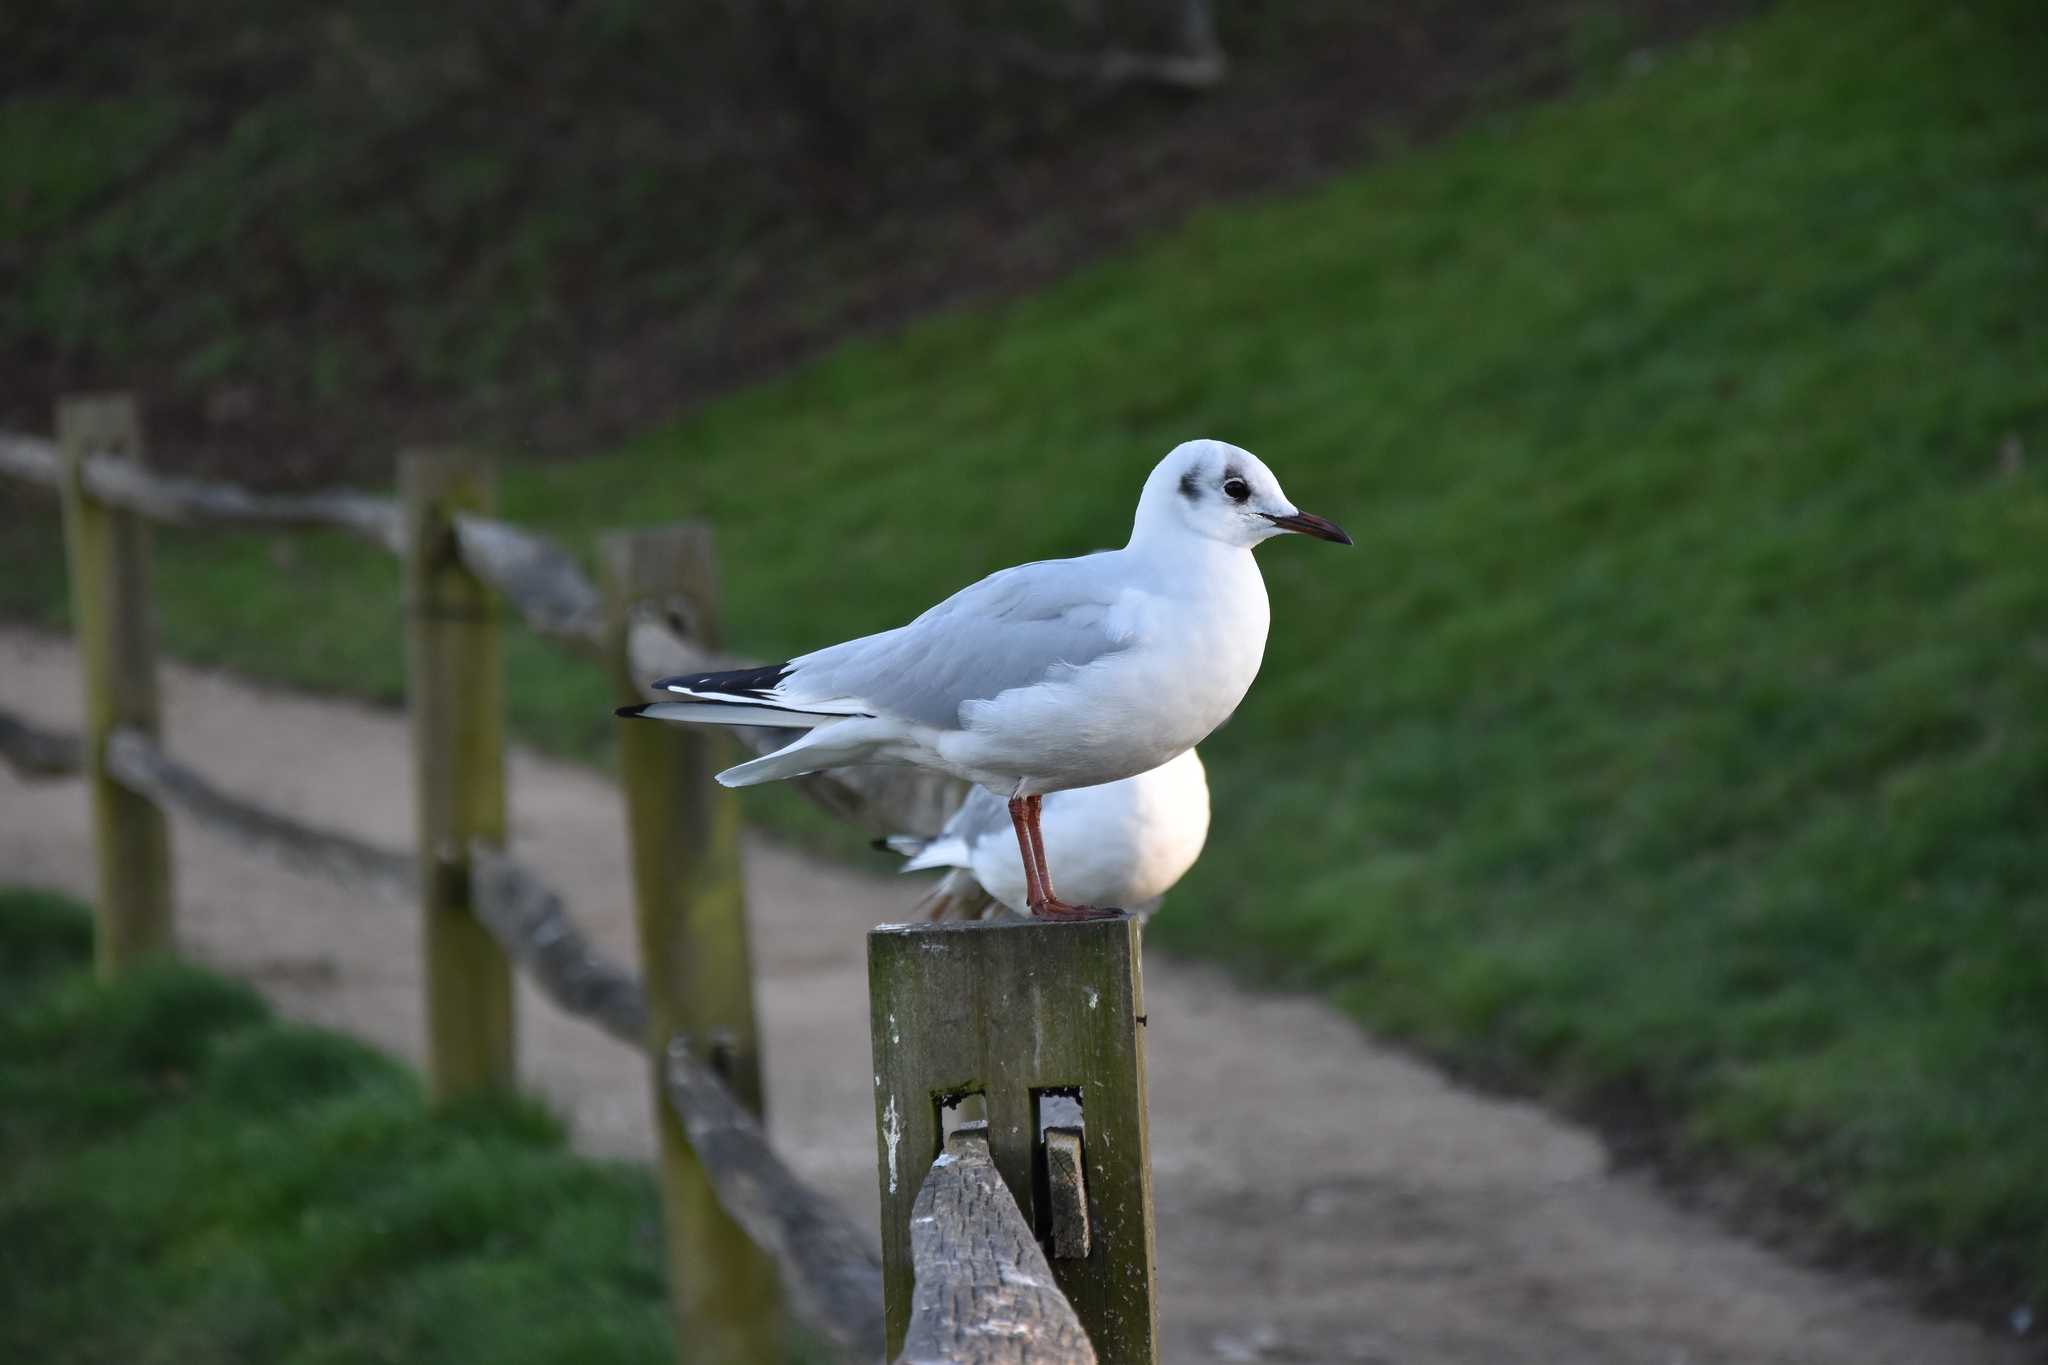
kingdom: Animalia
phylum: Chordata
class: Aves
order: Charadriiformes
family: Laridae
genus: Chroicocephalus
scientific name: Chroicocephalus ridibundus
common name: Black-headed gull
